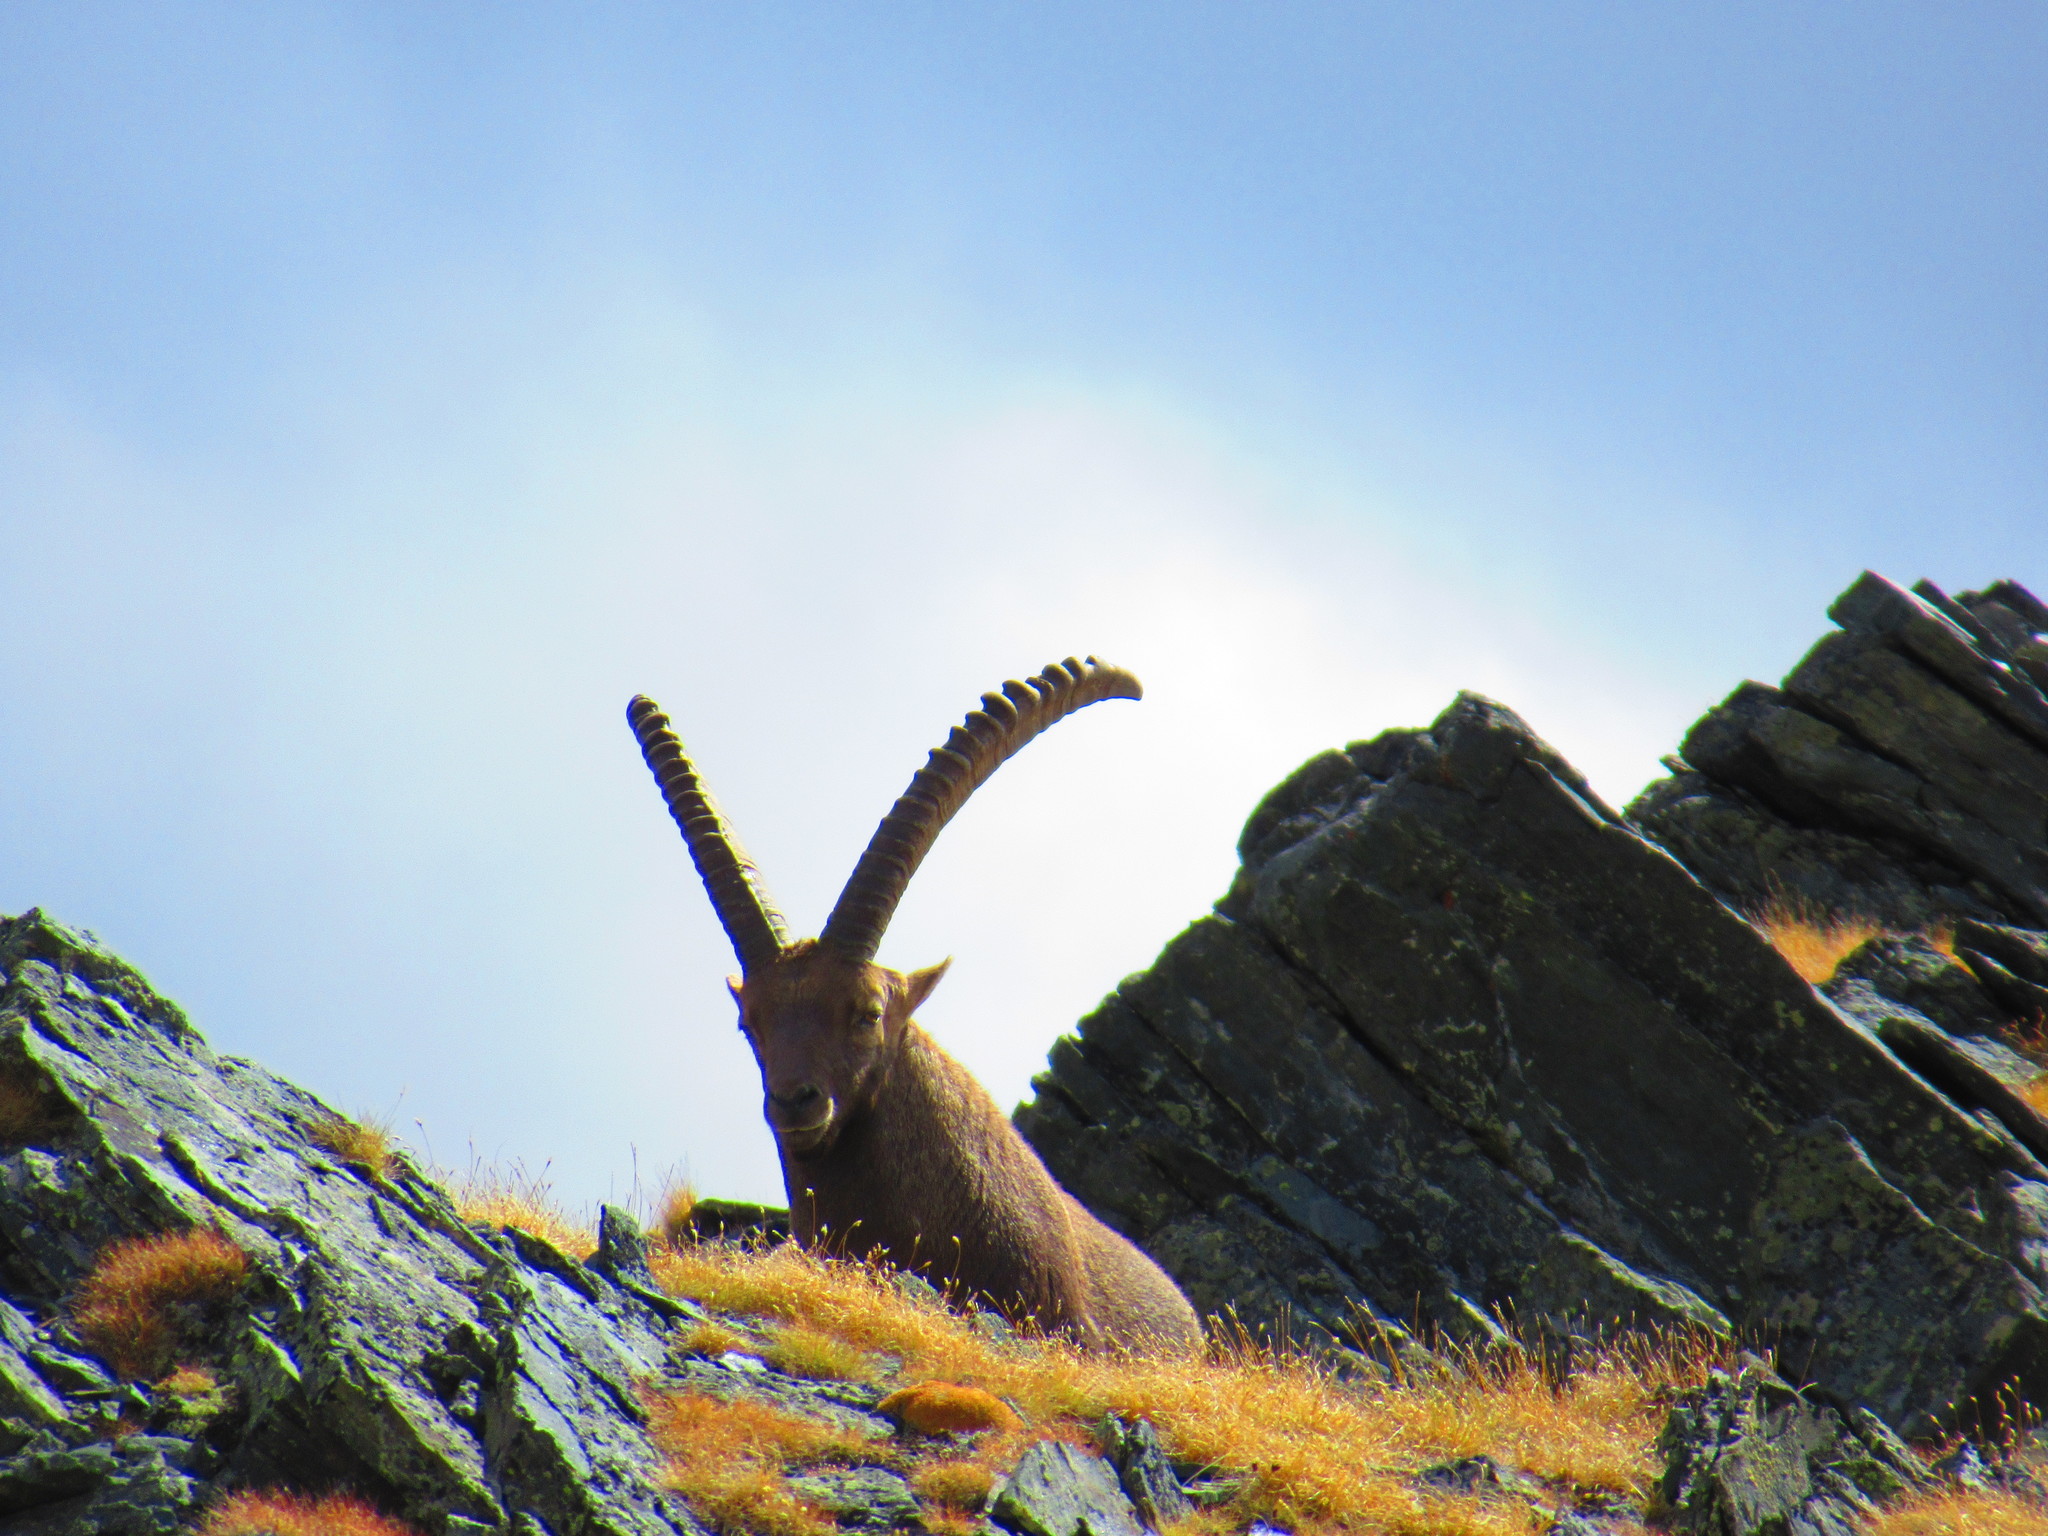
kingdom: Animalia
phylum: Chordata
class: Mammalia
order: Artiodactyla
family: Bovidae
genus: Capra
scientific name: Capra ibex
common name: Alpine ibex
